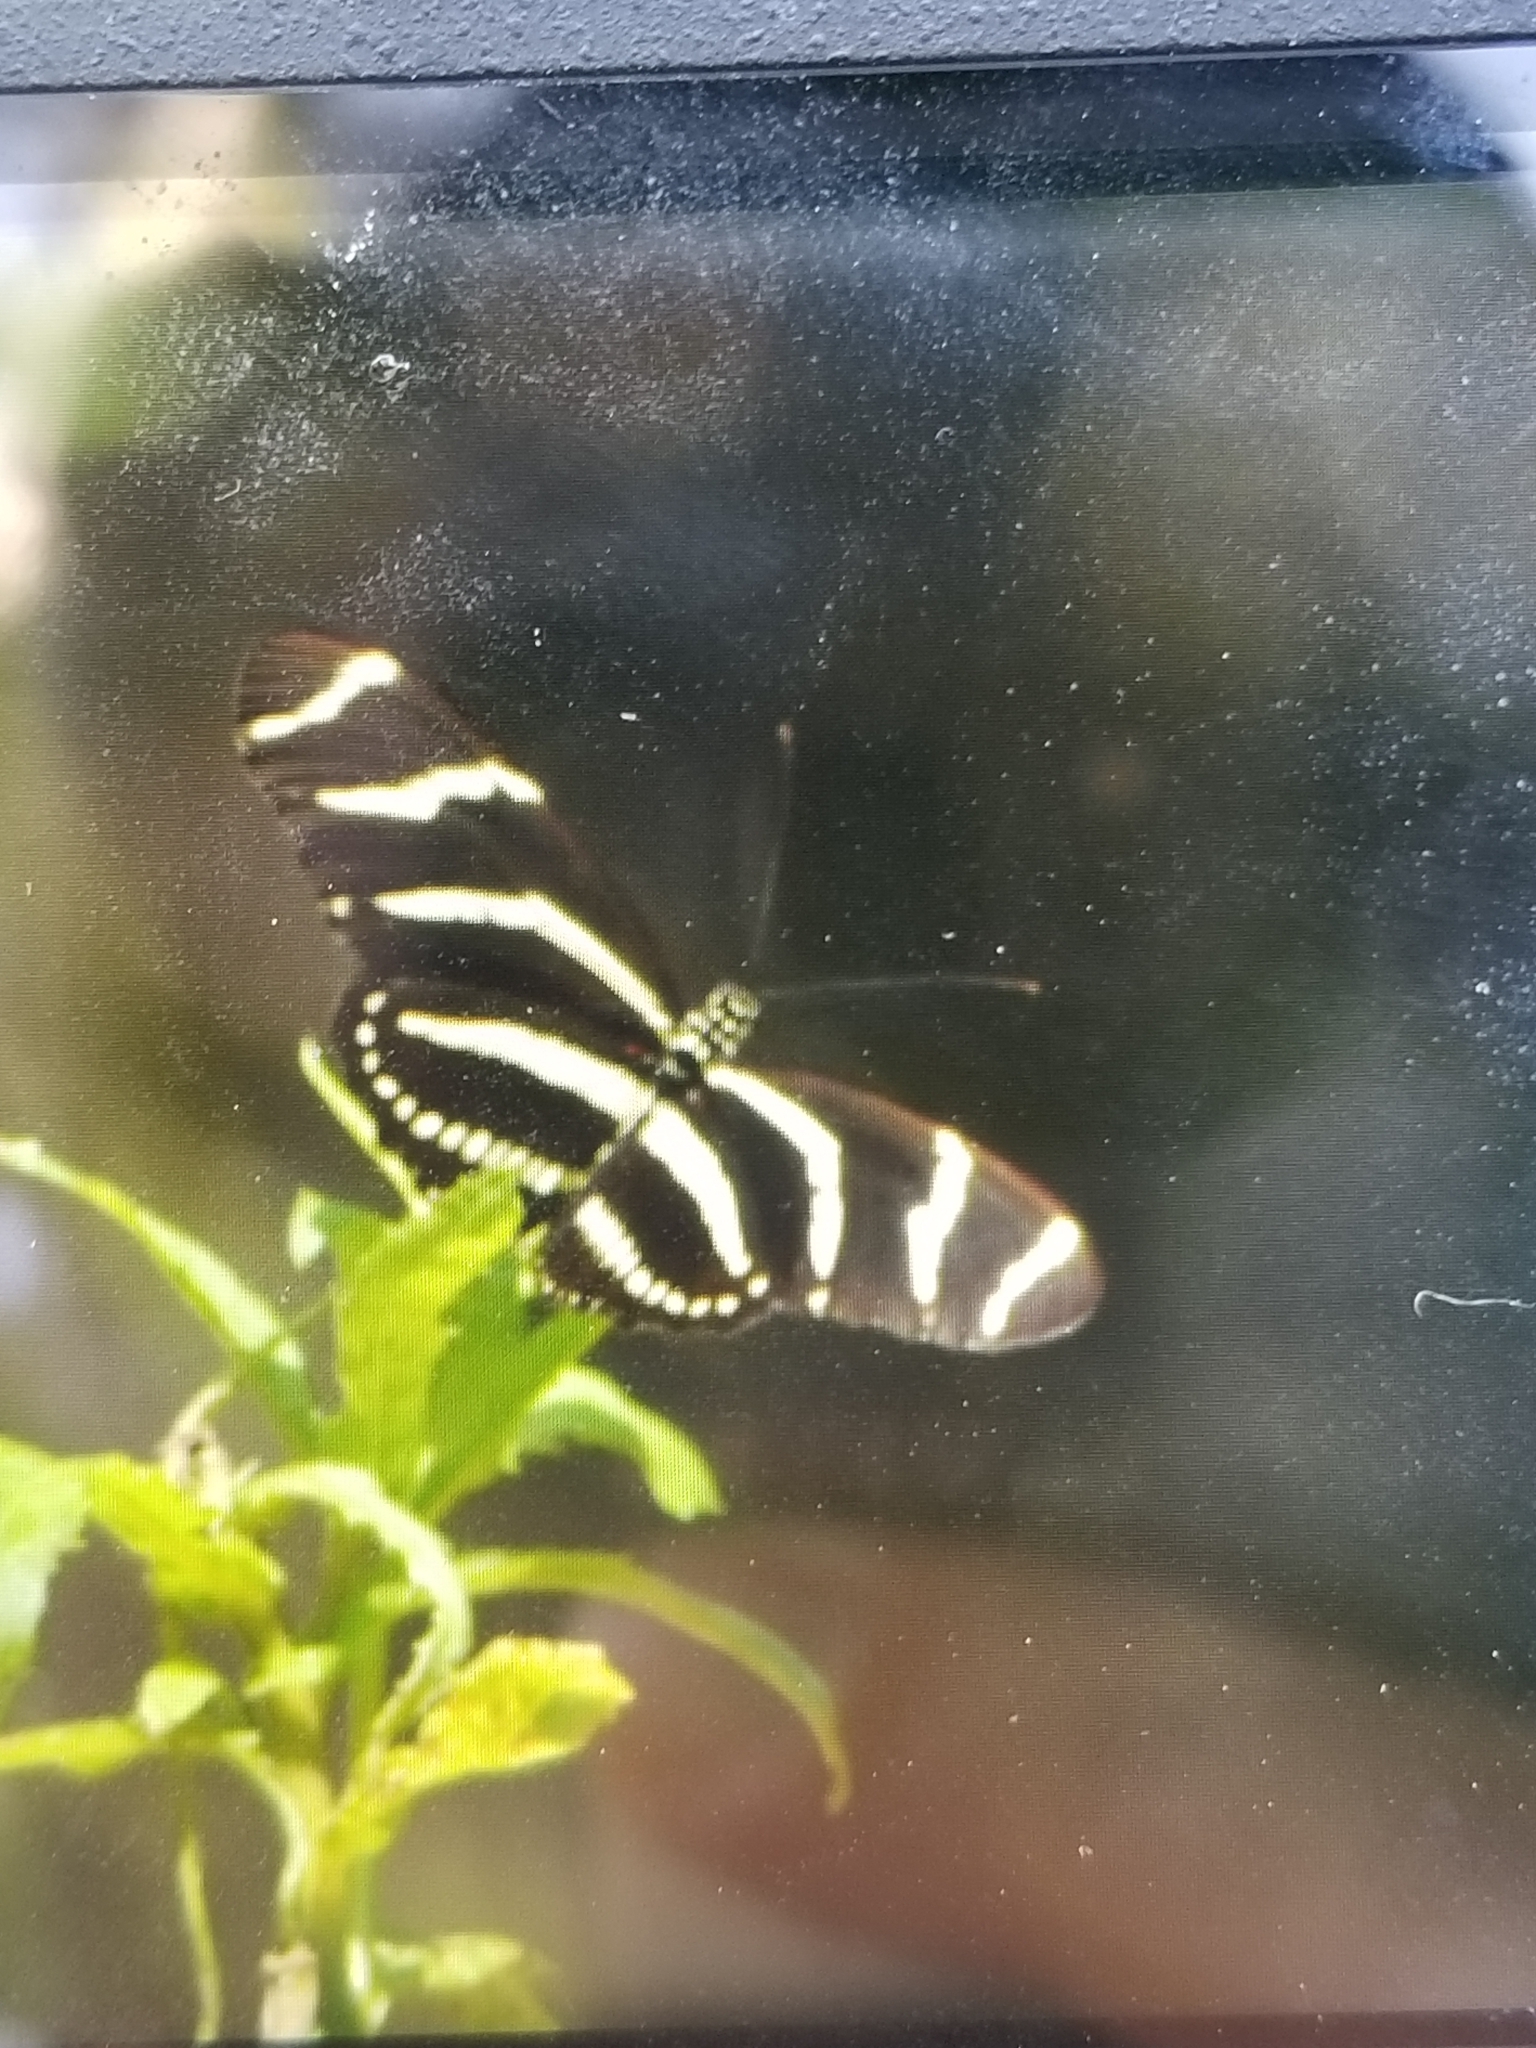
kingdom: Animalia
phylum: Arthropoda
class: Insecta
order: Lepidoptera
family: Nymphalidae
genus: Heliconius
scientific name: Heliconius charithonia
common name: Zebra long wing
